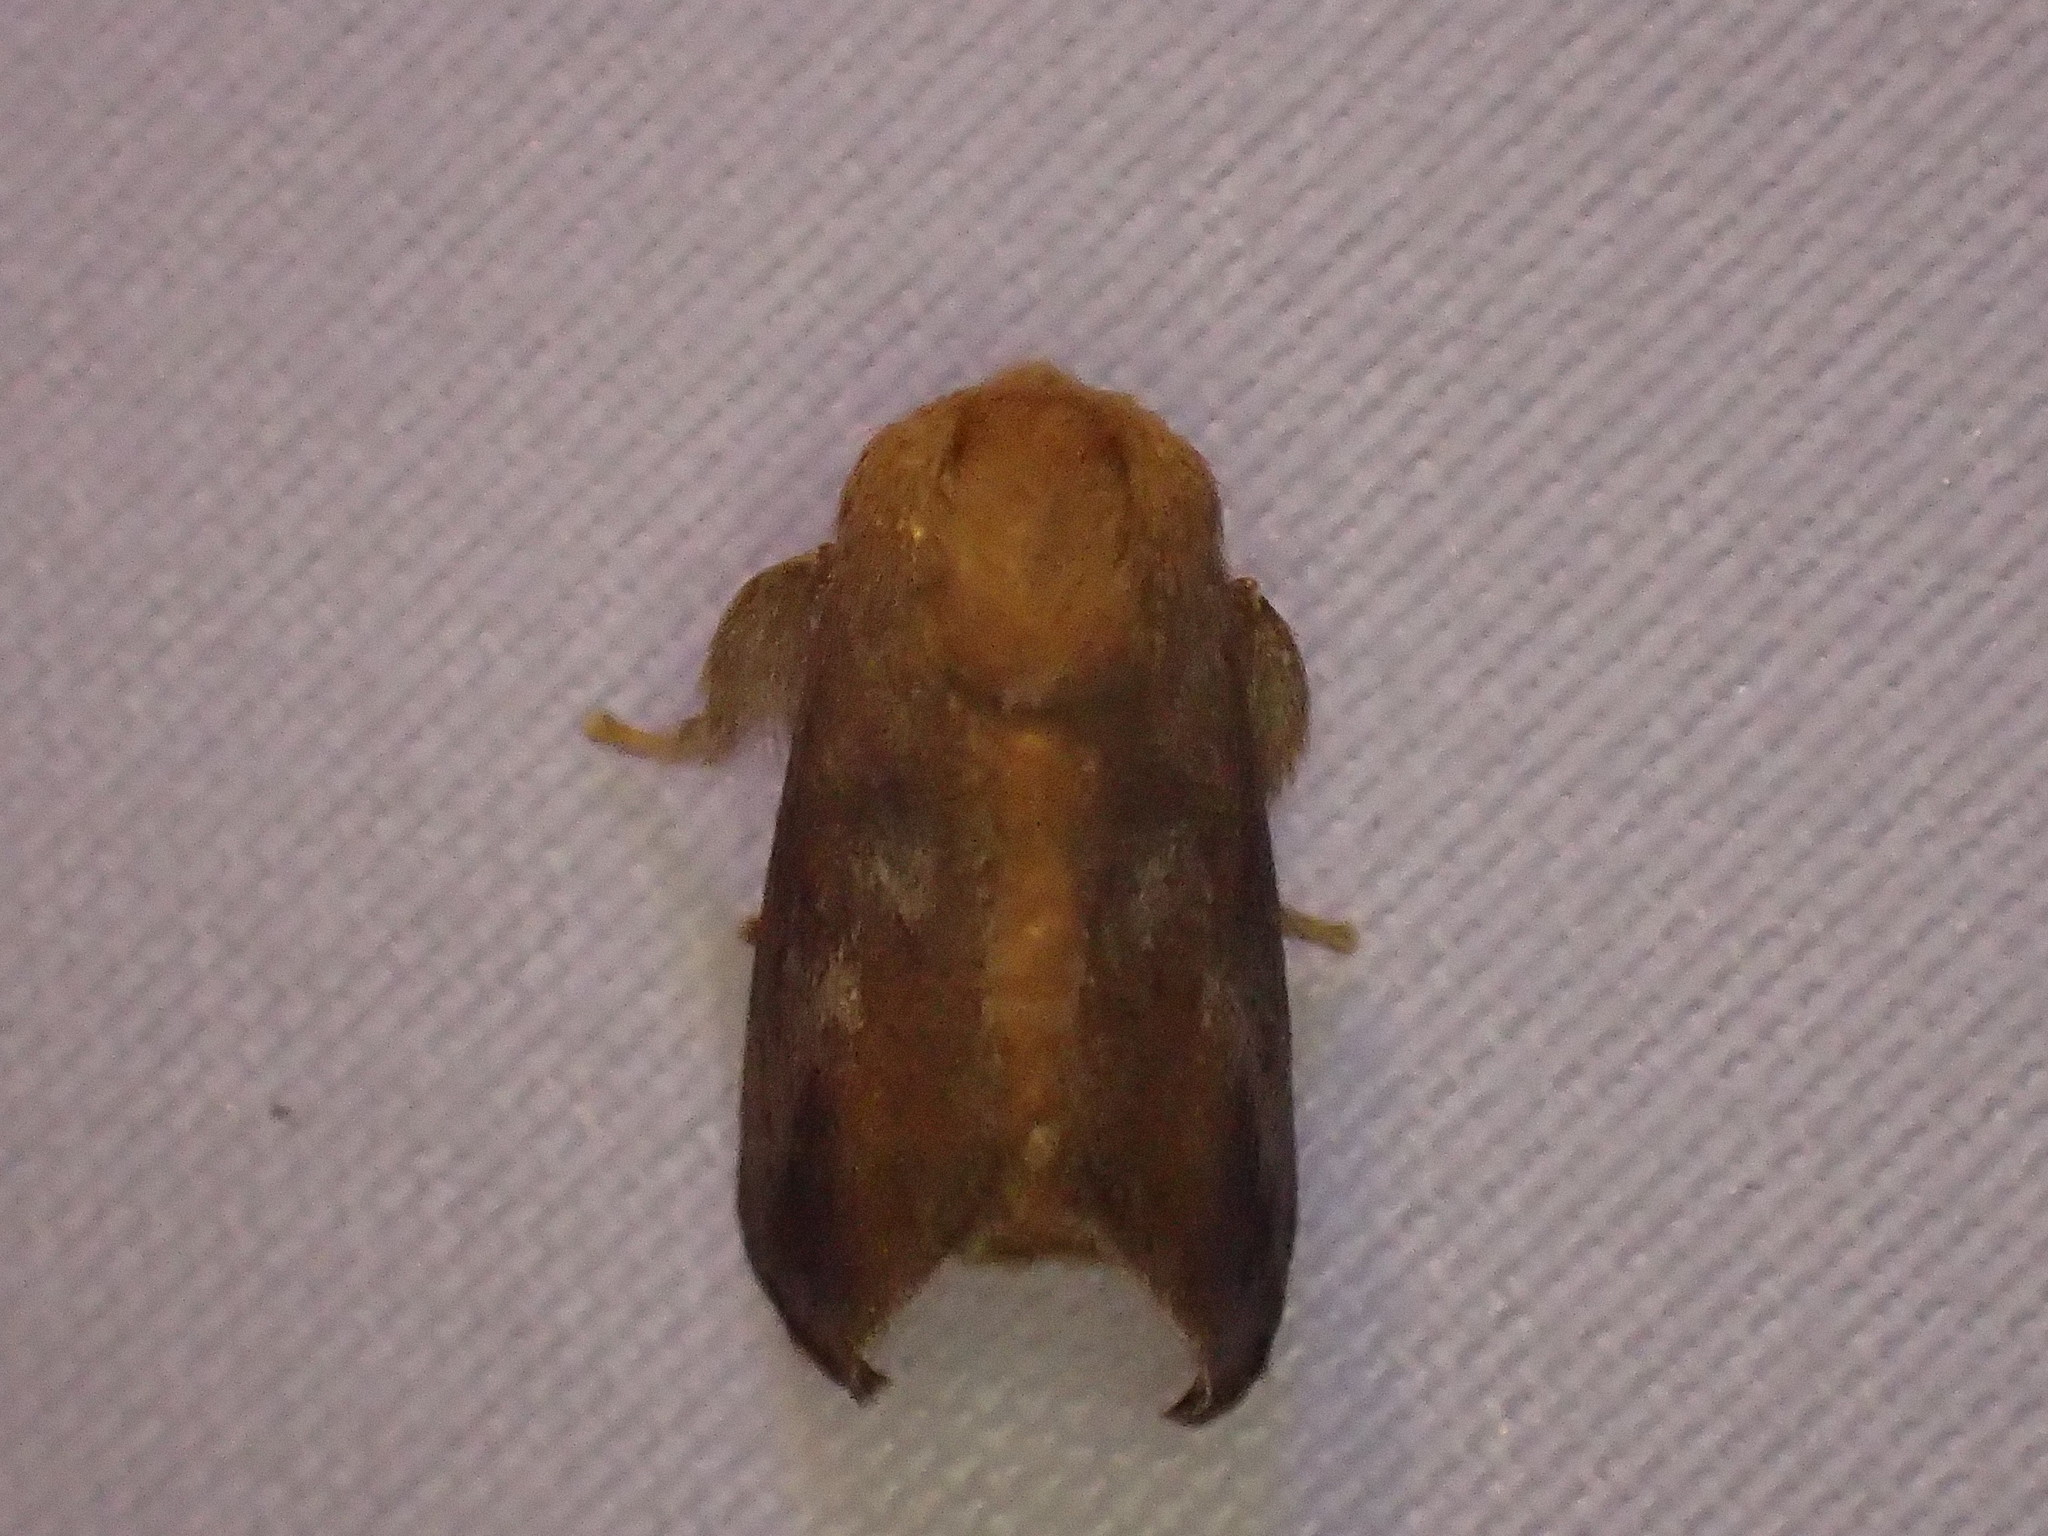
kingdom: Animalia
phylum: Arthropoda
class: Insecta
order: Lepidoptera
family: Limacodidae
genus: Isa
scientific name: Isa textula
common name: Crowned slug moth
